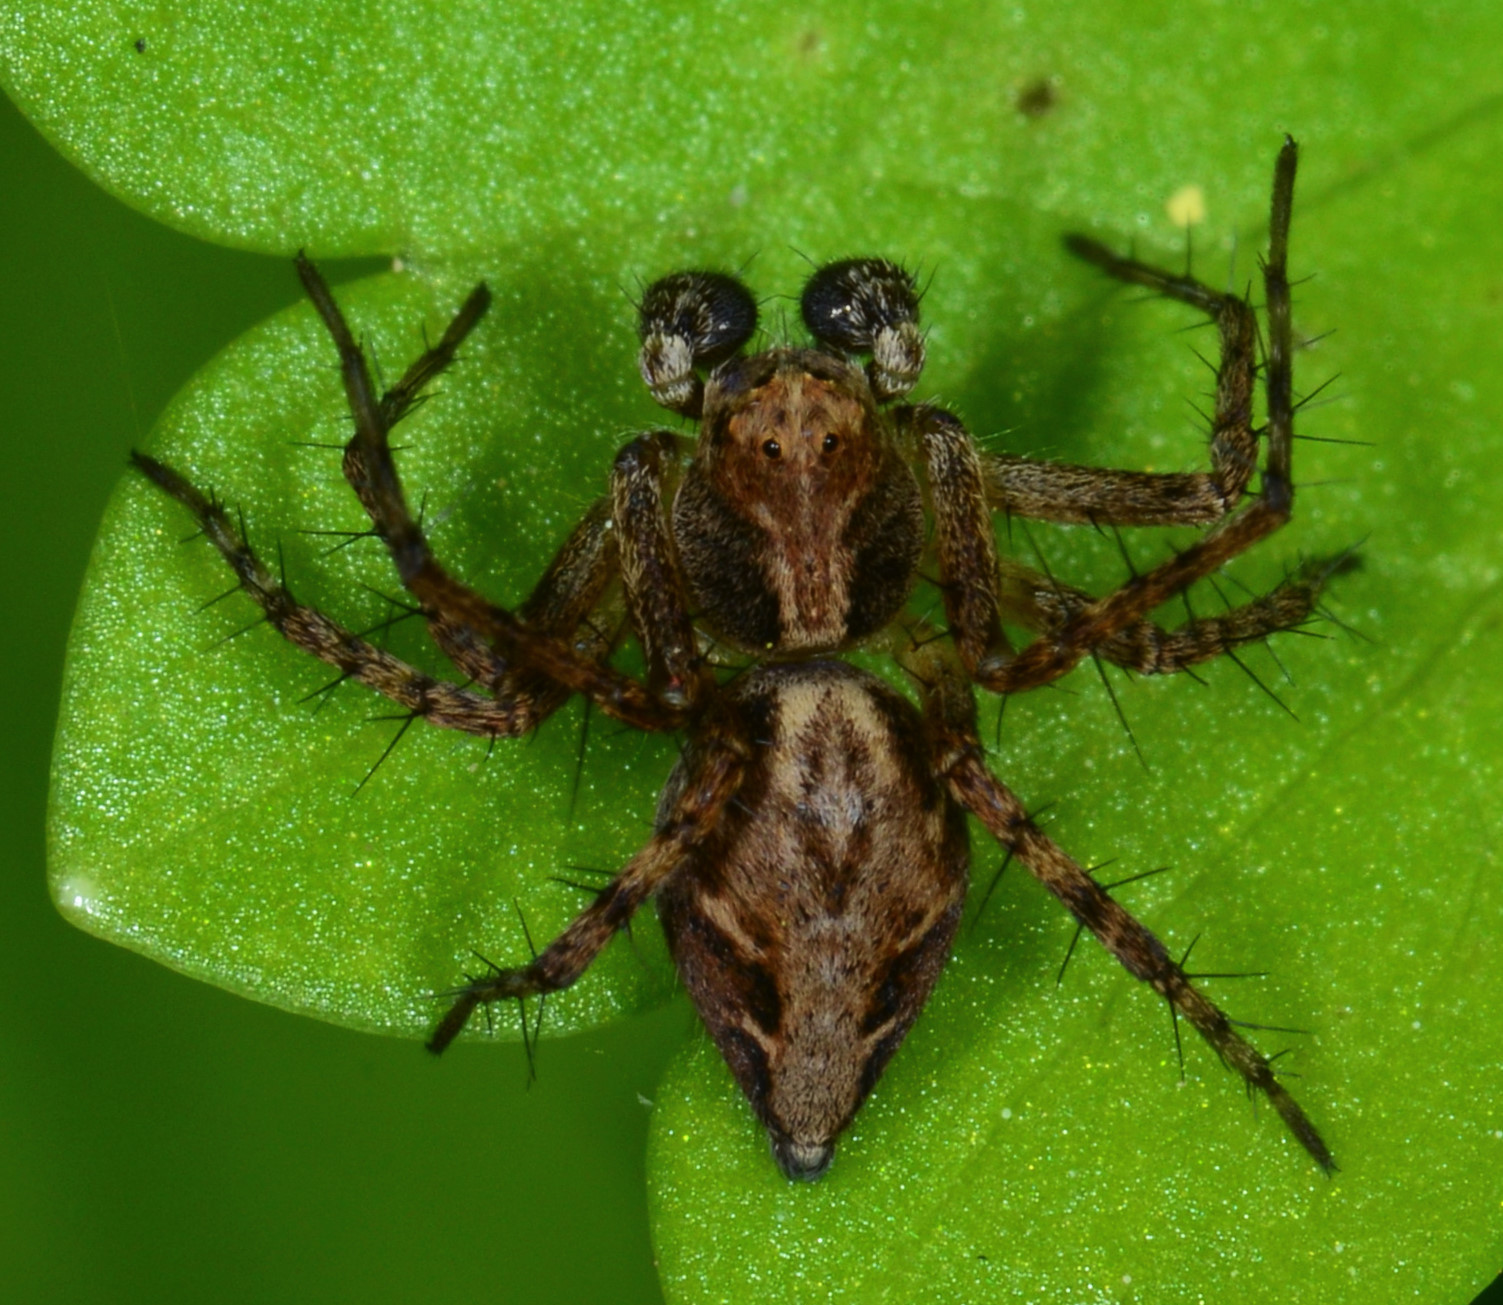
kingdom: Animalia
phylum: Arthropoda
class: Arachnida
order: Araneae
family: Oxyopidae
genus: Oxyopes
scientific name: Oxyopes scalaris
